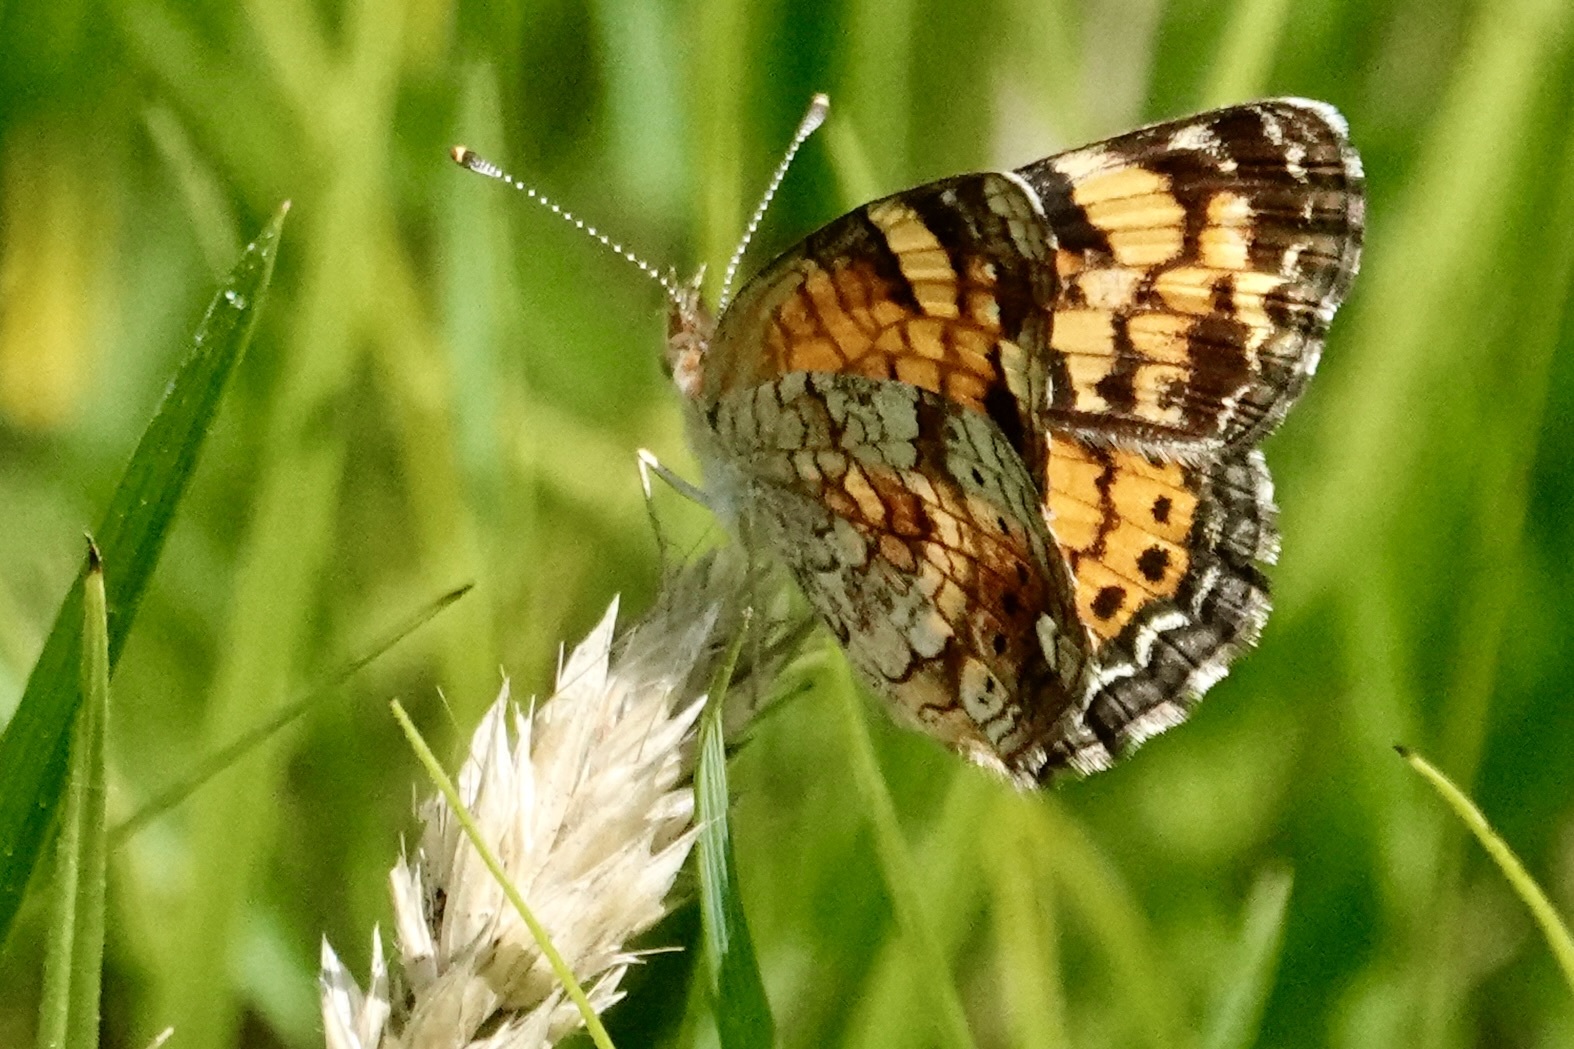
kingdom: Animalia
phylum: Arthropoda
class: Insecta
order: Lepidoptera
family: Nymphalidae
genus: Phyciodes
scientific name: Phyciodes tharos
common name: Pearl crescent
